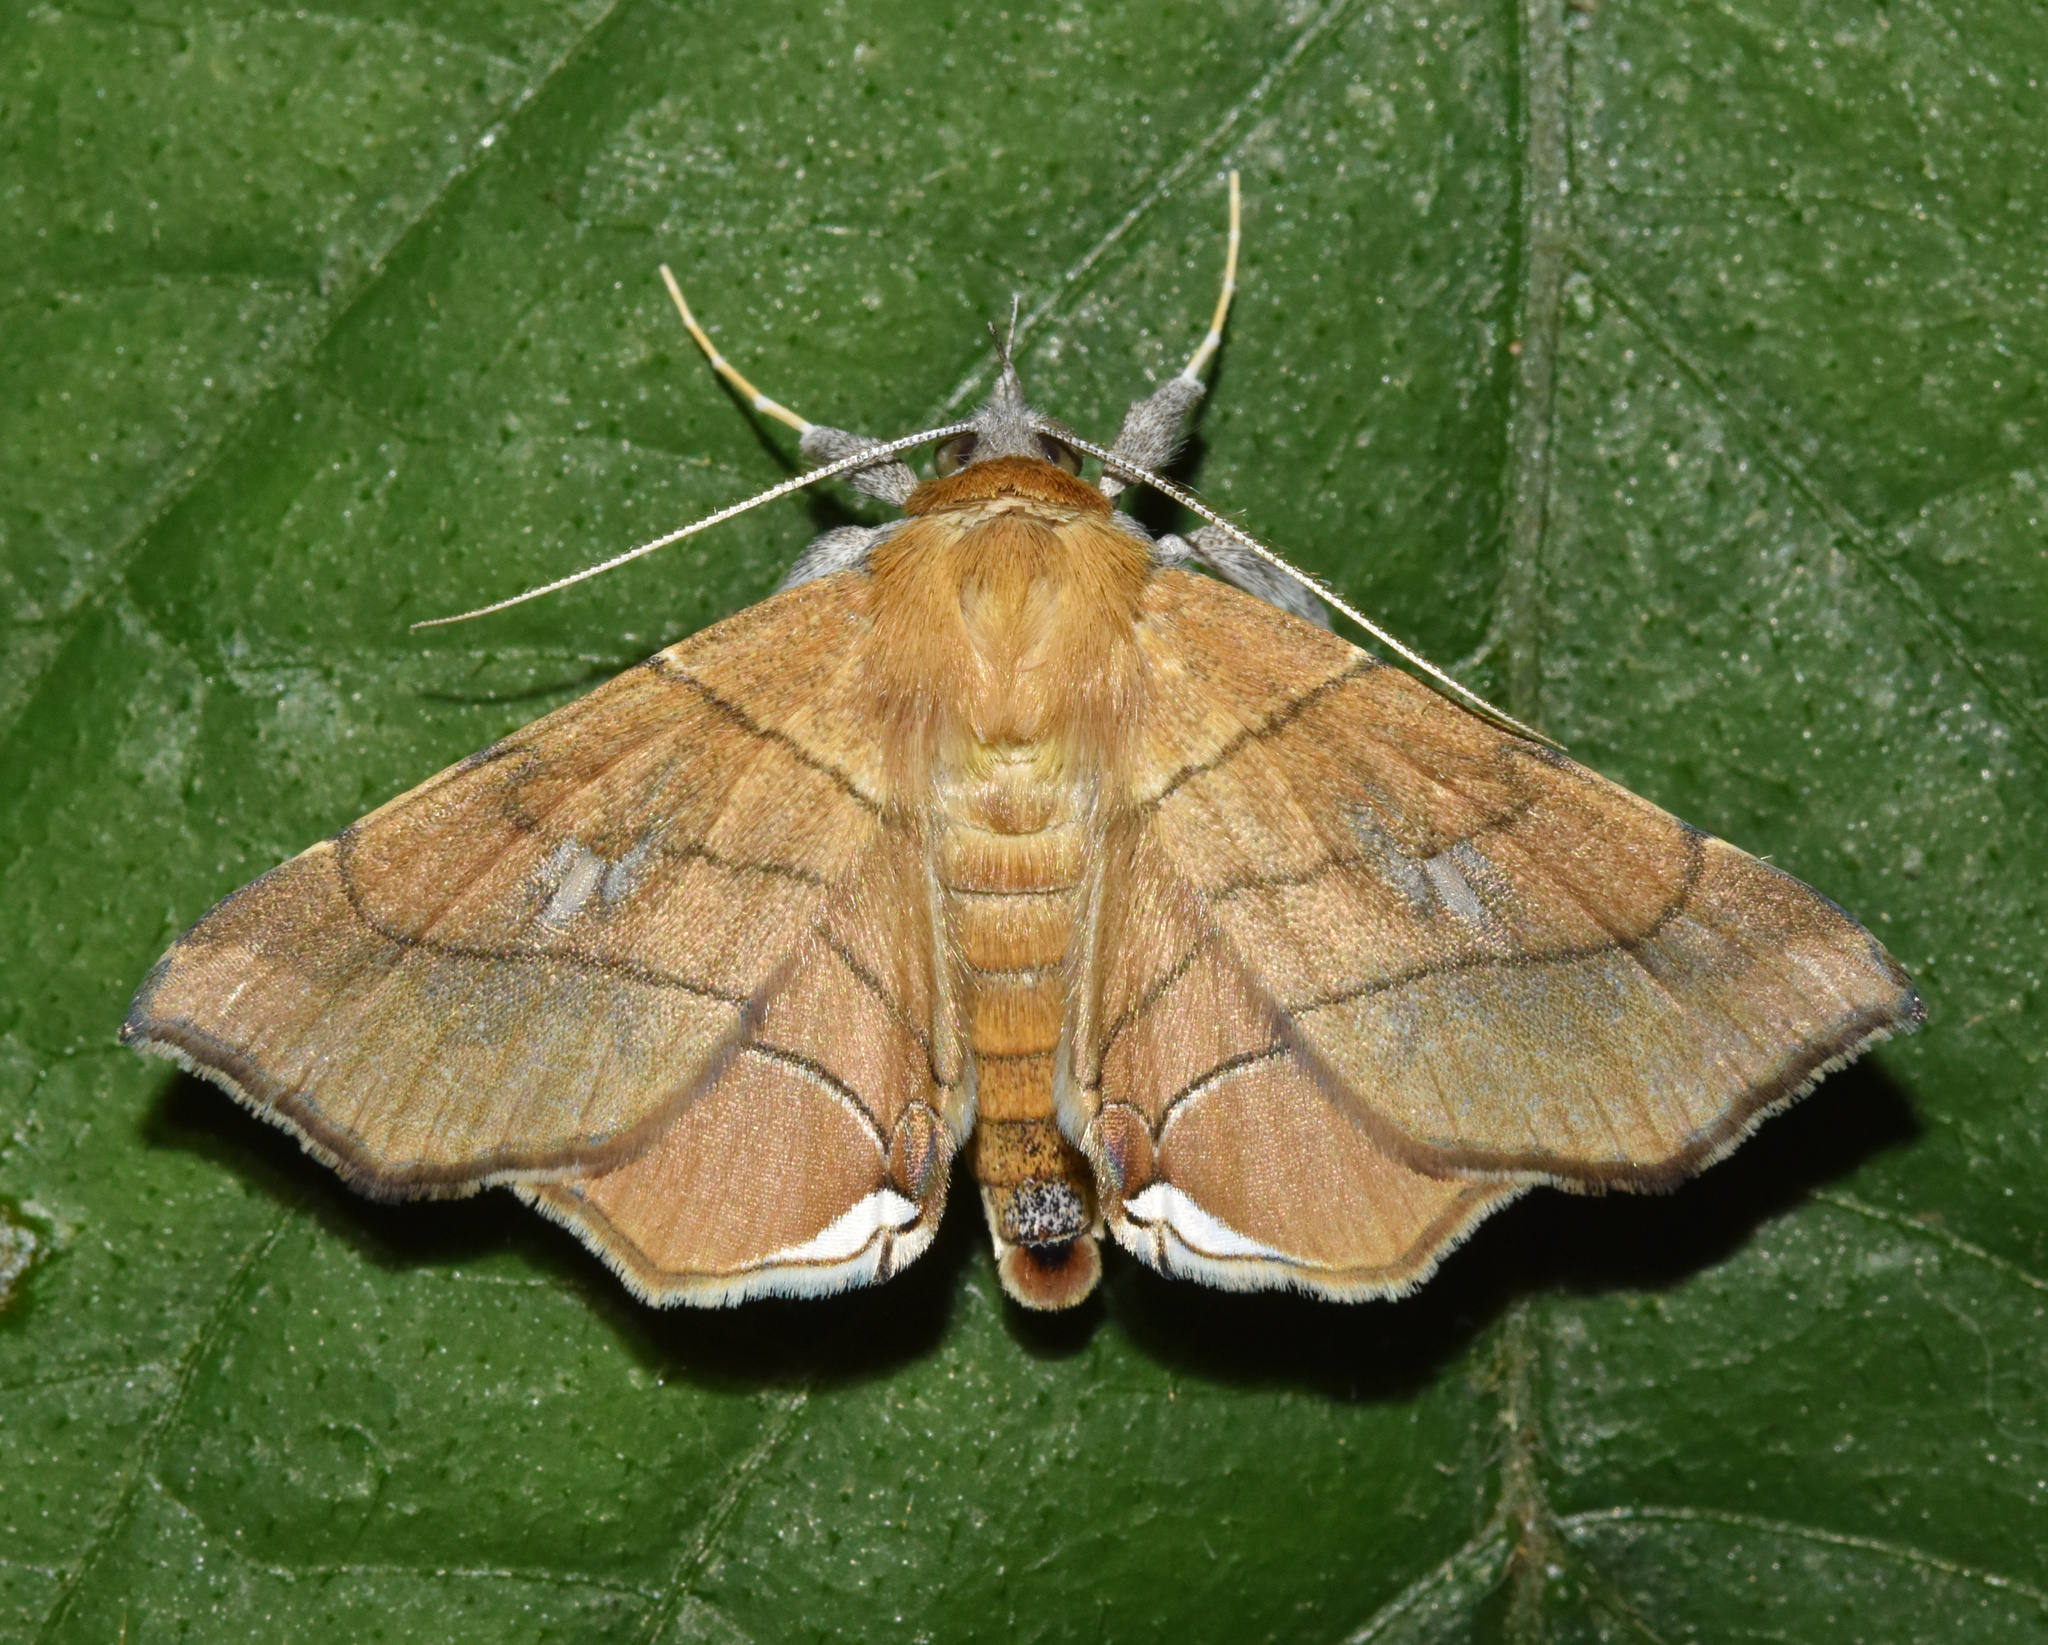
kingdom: Animalia
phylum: Arthropoda
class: Insecta
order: Lepidoptera
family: Erebidae
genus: Gracilodes
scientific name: Gracilodes caffra
